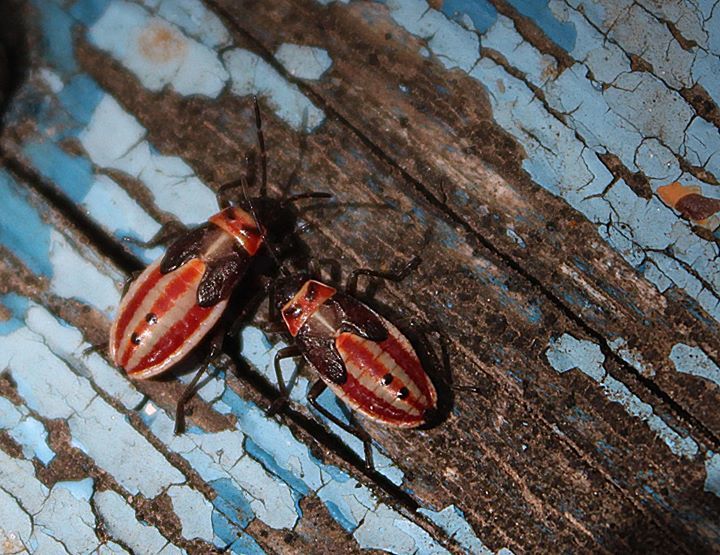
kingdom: Animalia
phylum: Arthropoda
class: Insecta
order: Hemiptera
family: Lygaeidae
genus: Lygaeus
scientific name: Lygaeus creticus
